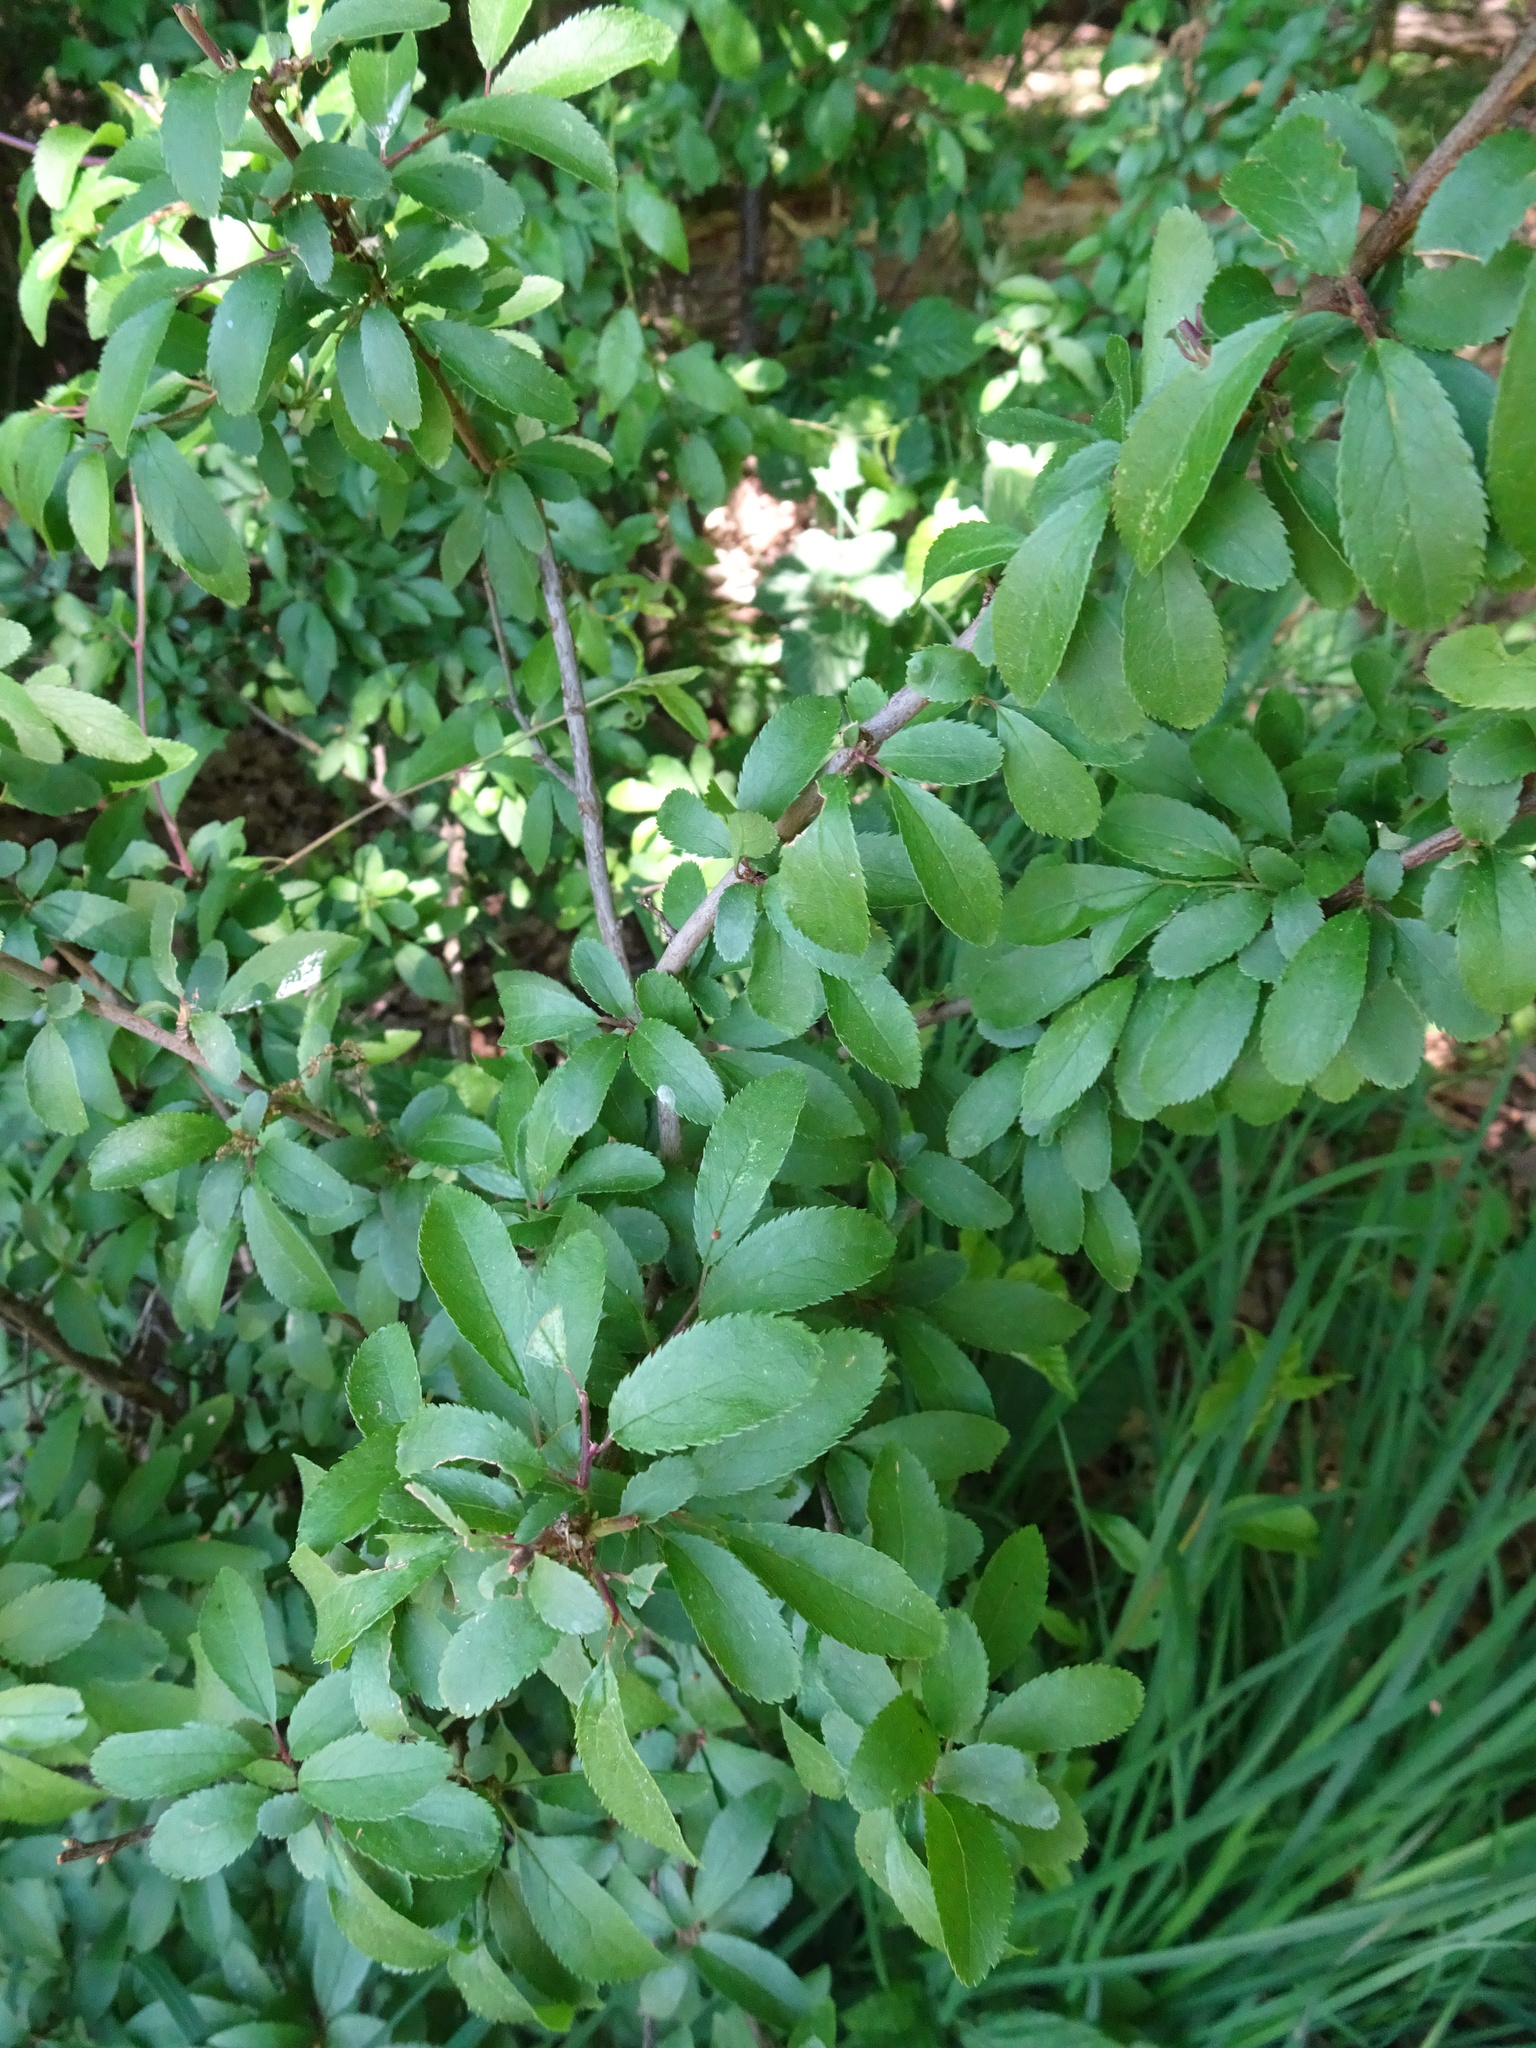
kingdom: Plantae
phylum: Tracheophyta
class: Magnoliopsida
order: Rosales
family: Rosaceae
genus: Prunus
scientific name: Prunus spinosa
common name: Blackthorn
